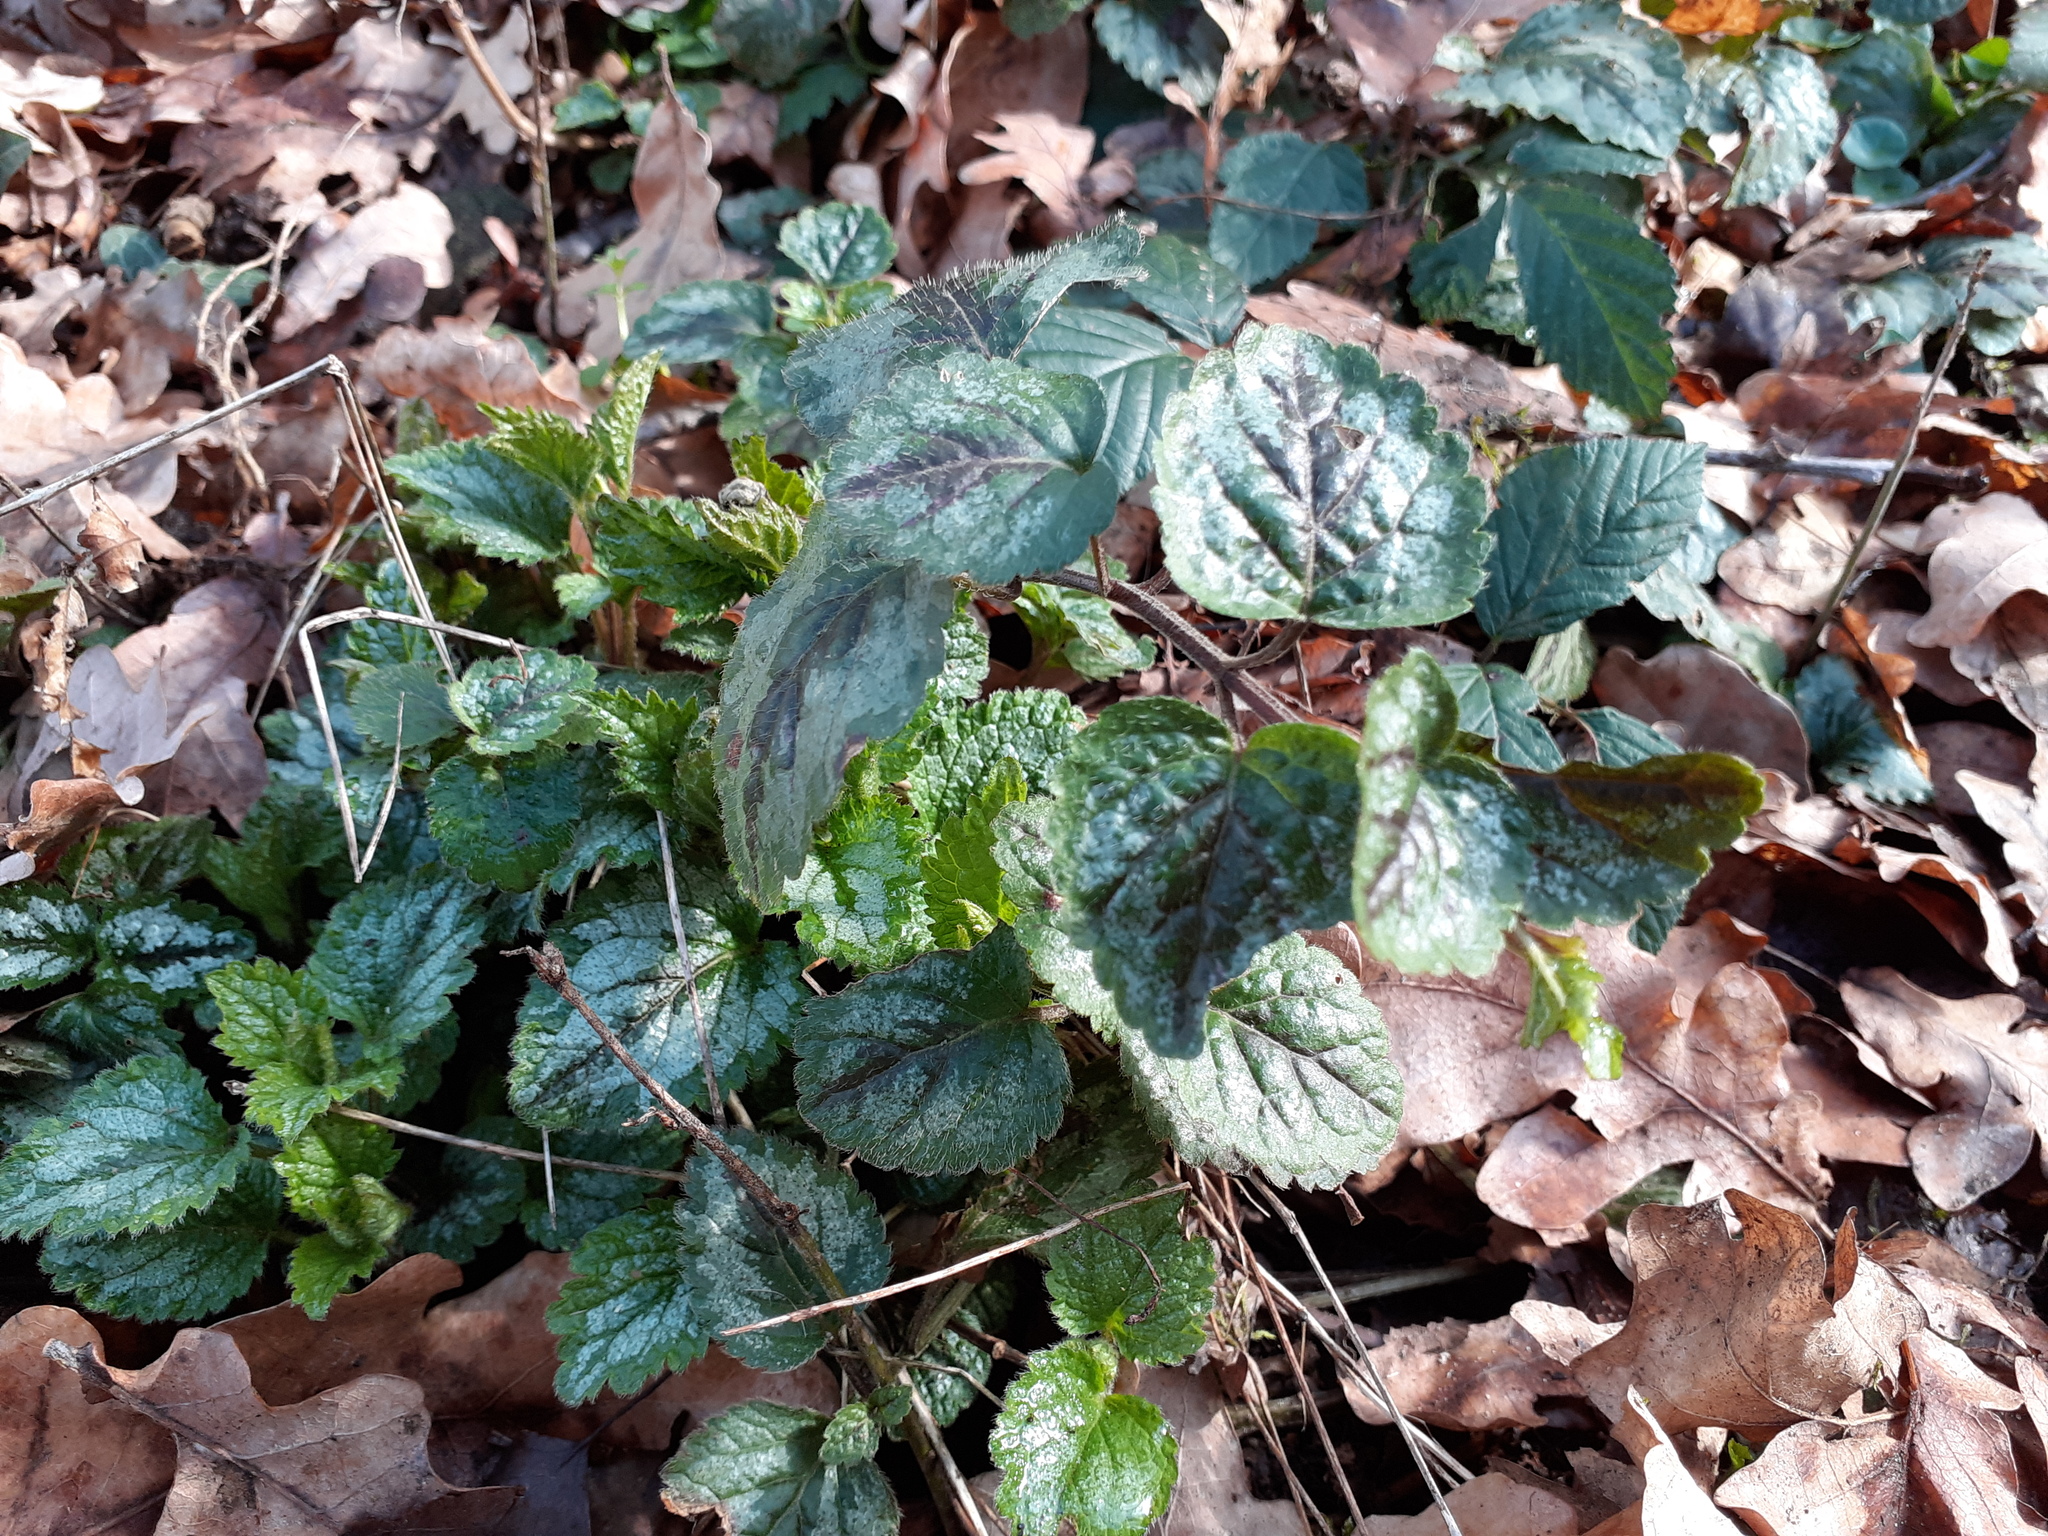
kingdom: Plantae
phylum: Tracheophyta
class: Magnoliopsida
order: Lamiales
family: Lamiaceae
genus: Lamium
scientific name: Lamium galeobdolon
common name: Yellow archangel
